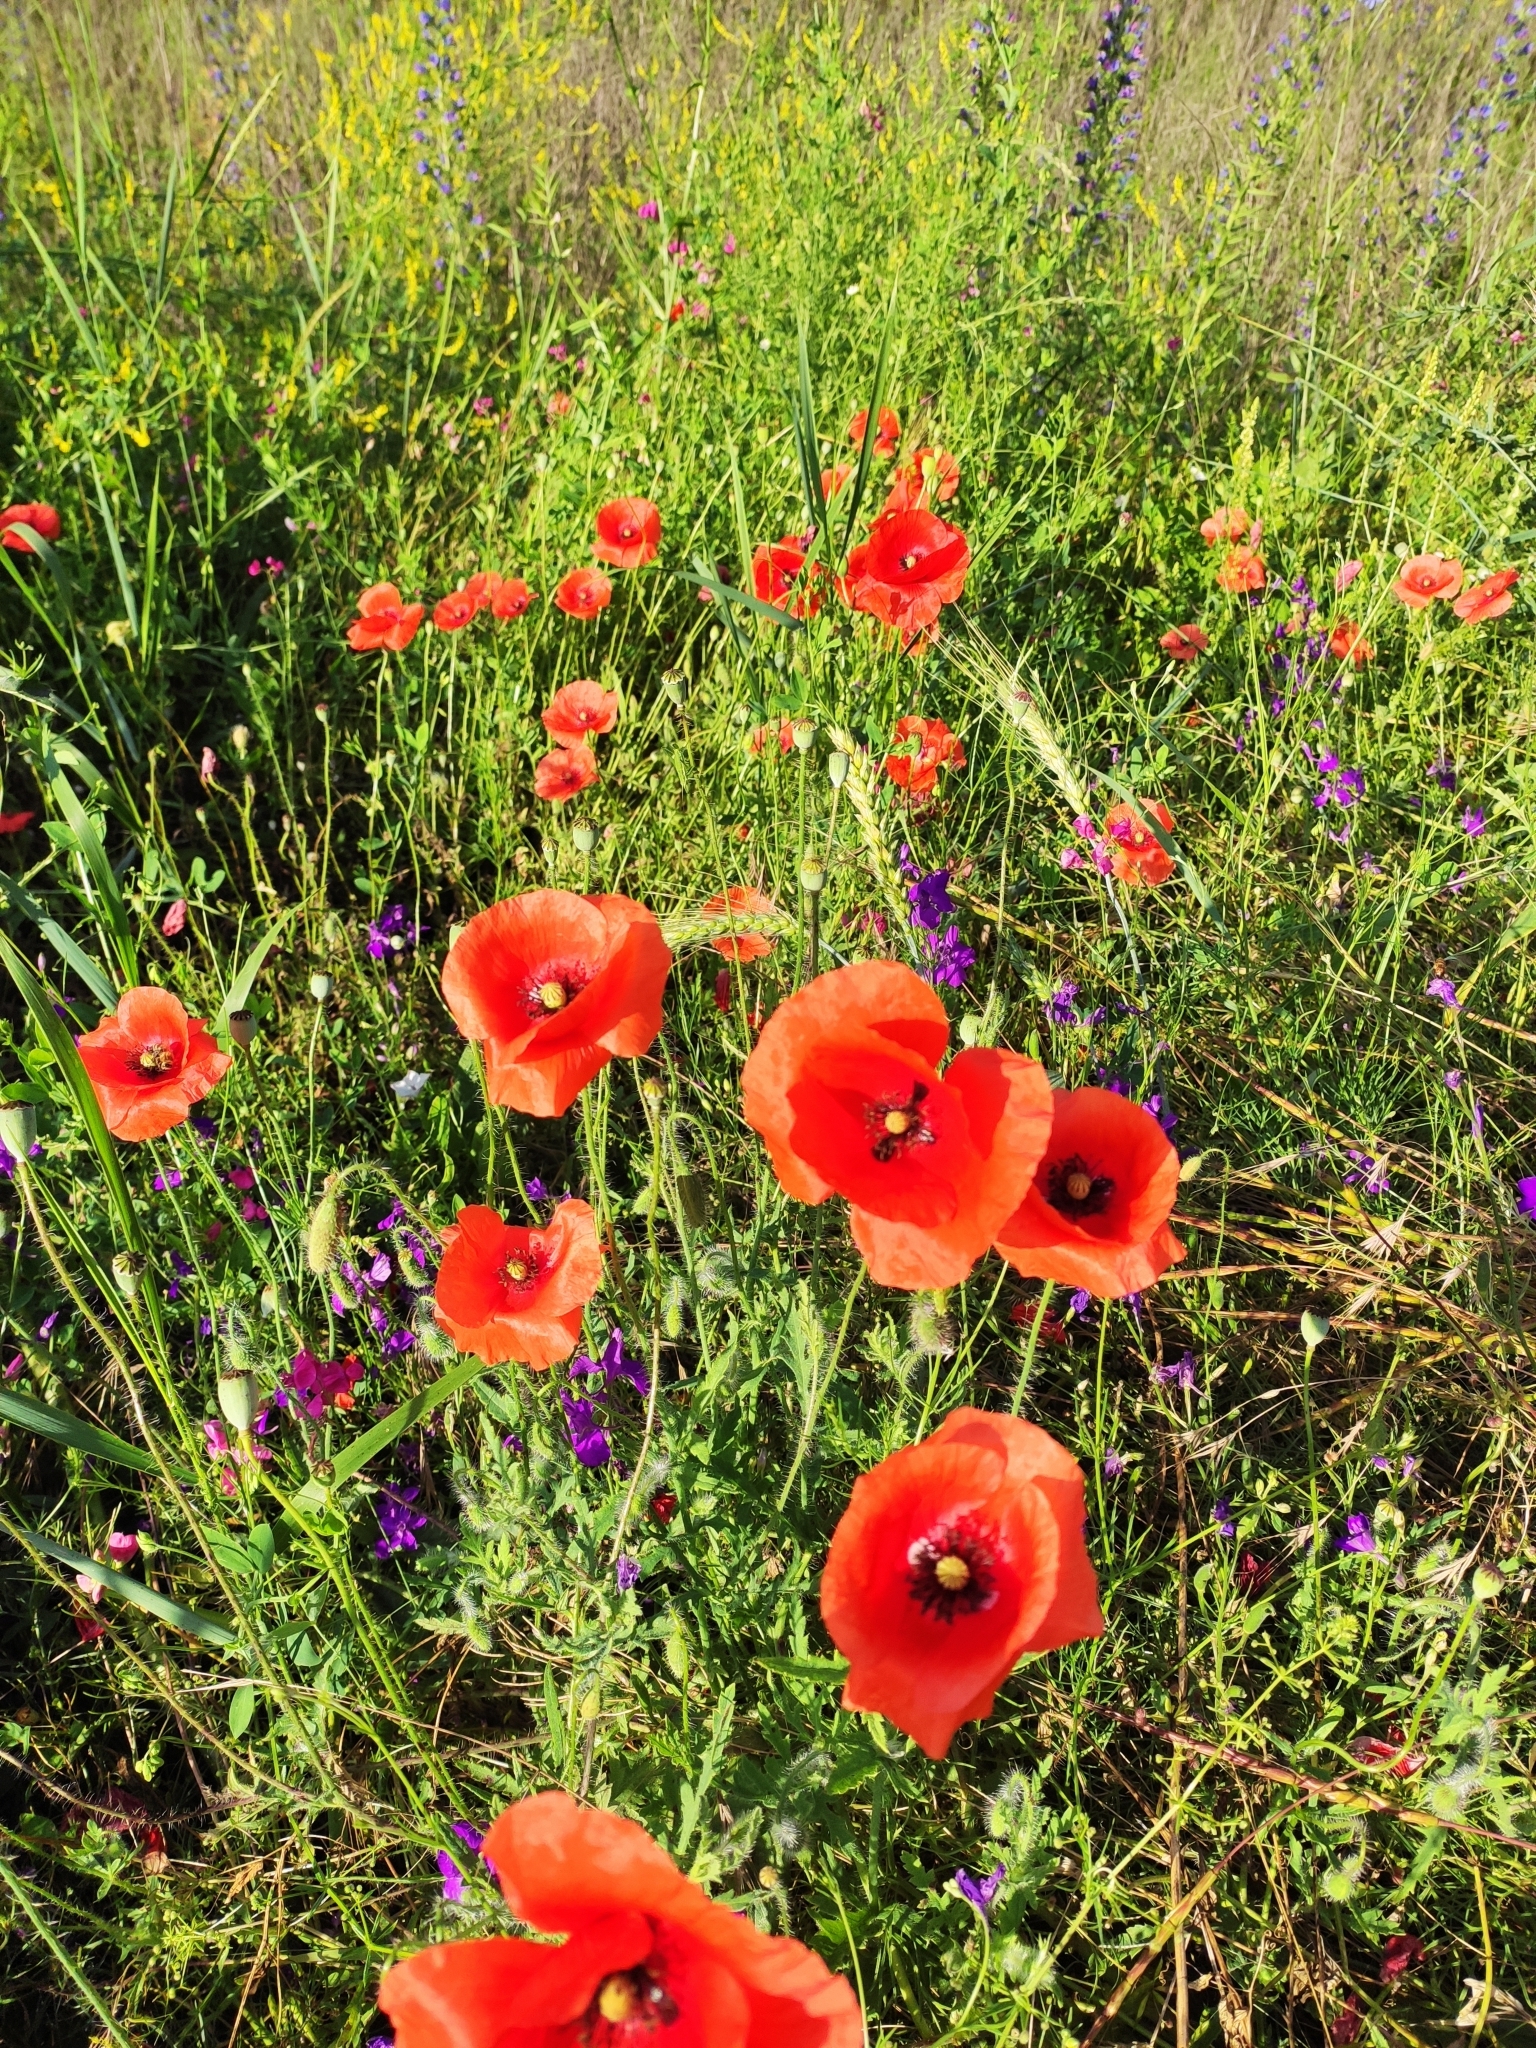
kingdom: Plantae
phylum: Tracheophyta
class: Magnoliopsida
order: Ranunculales
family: Papaveraceae
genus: Papaver
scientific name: Papaver rhoeas
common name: Corn poppy
